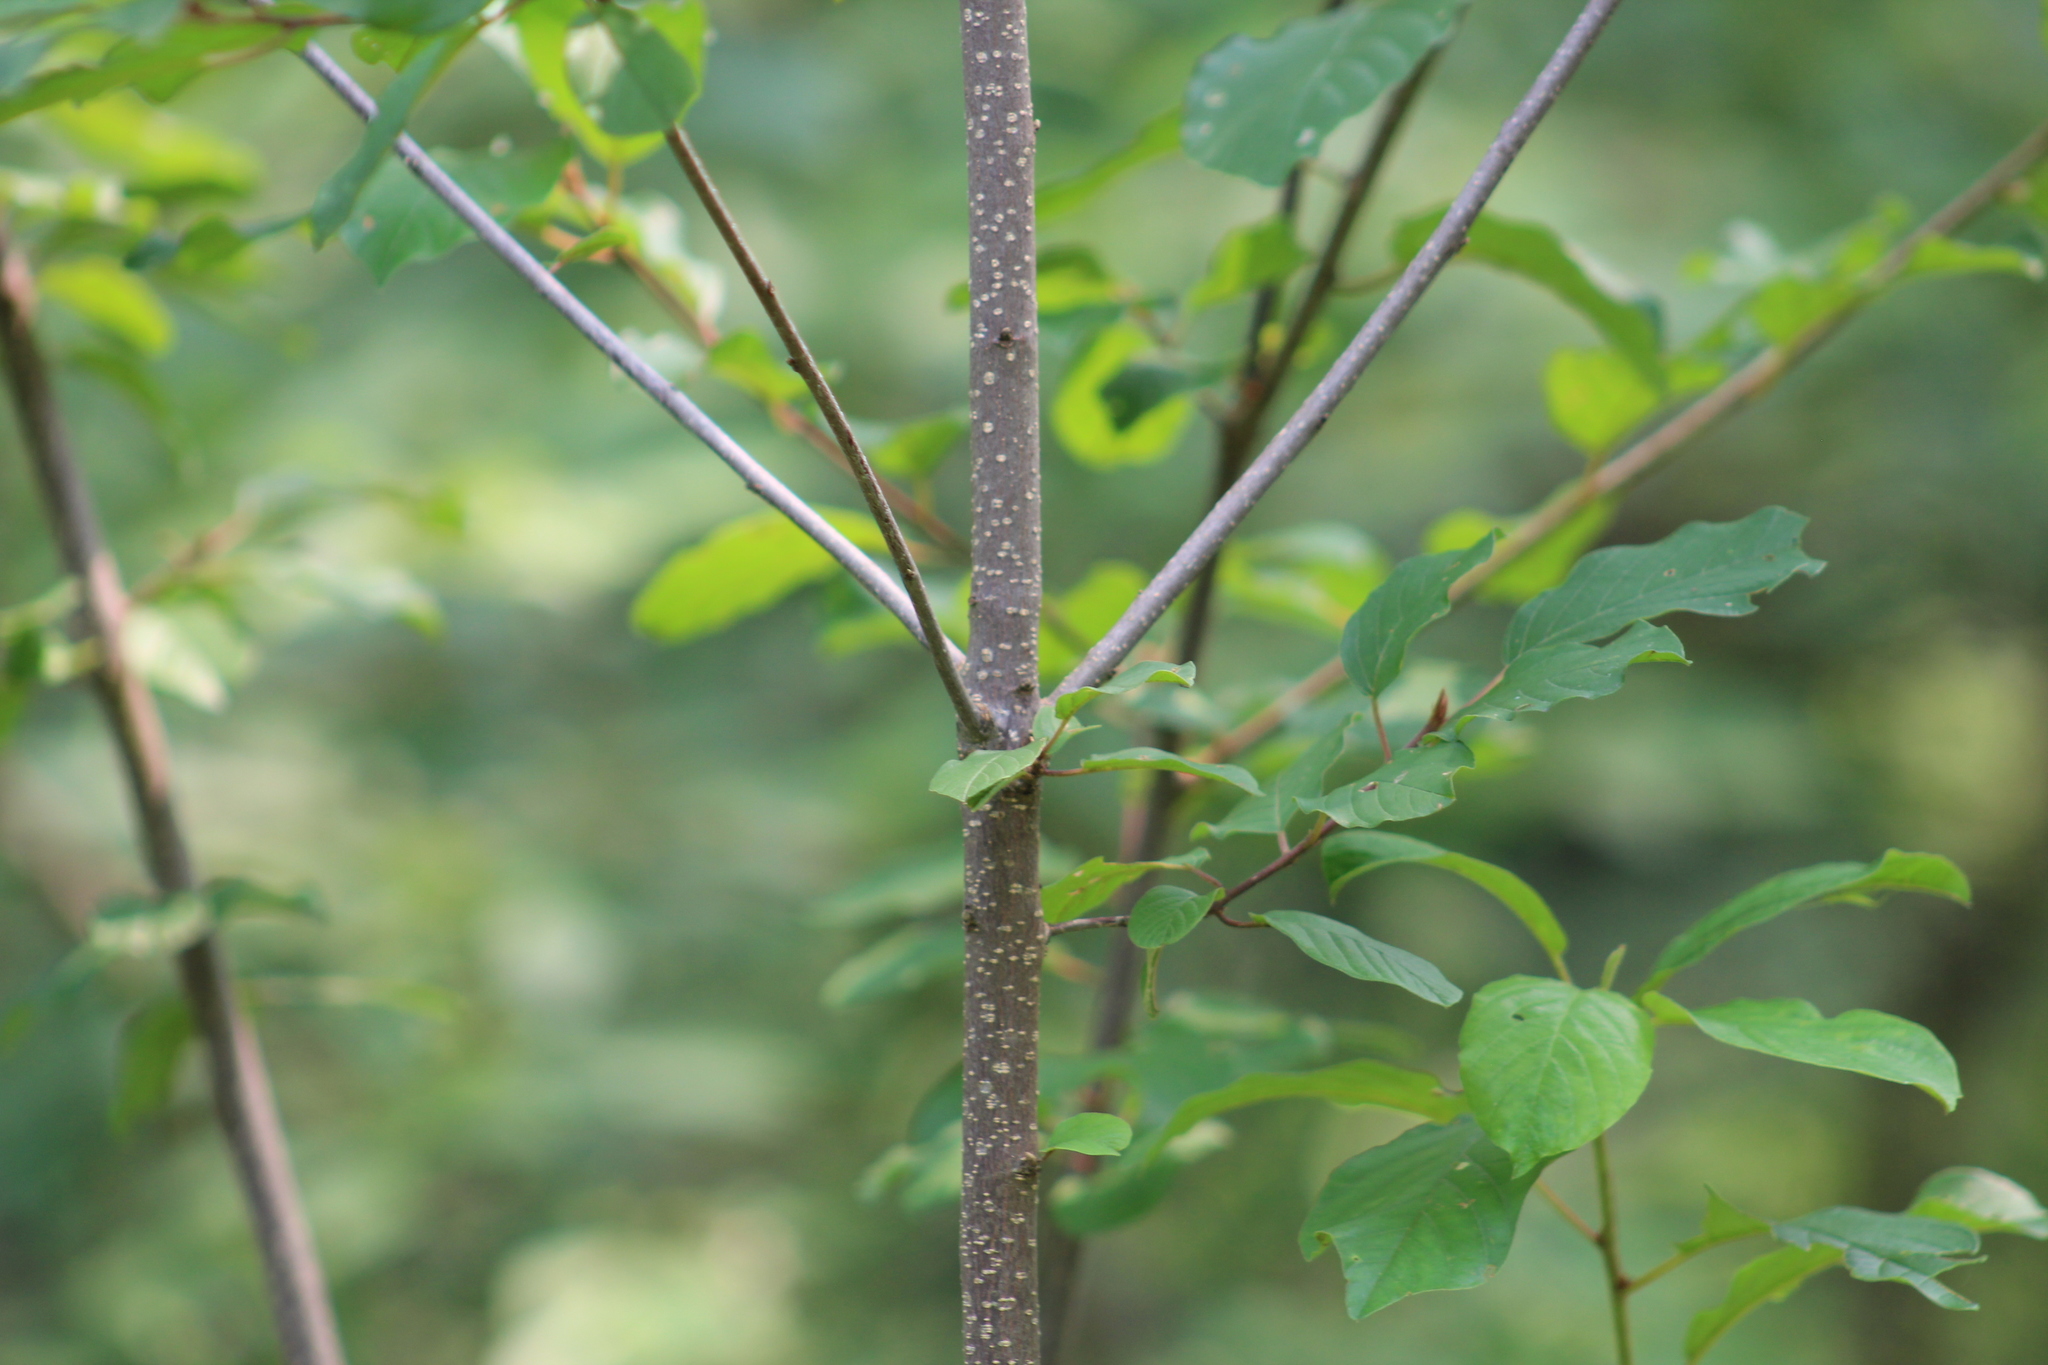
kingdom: Plantae
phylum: Tracheophyta
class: Magnoliopsida
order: Rosales
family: Rhamnaceae
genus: Frangula
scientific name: Frangula alnus
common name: Alder buckthorn
